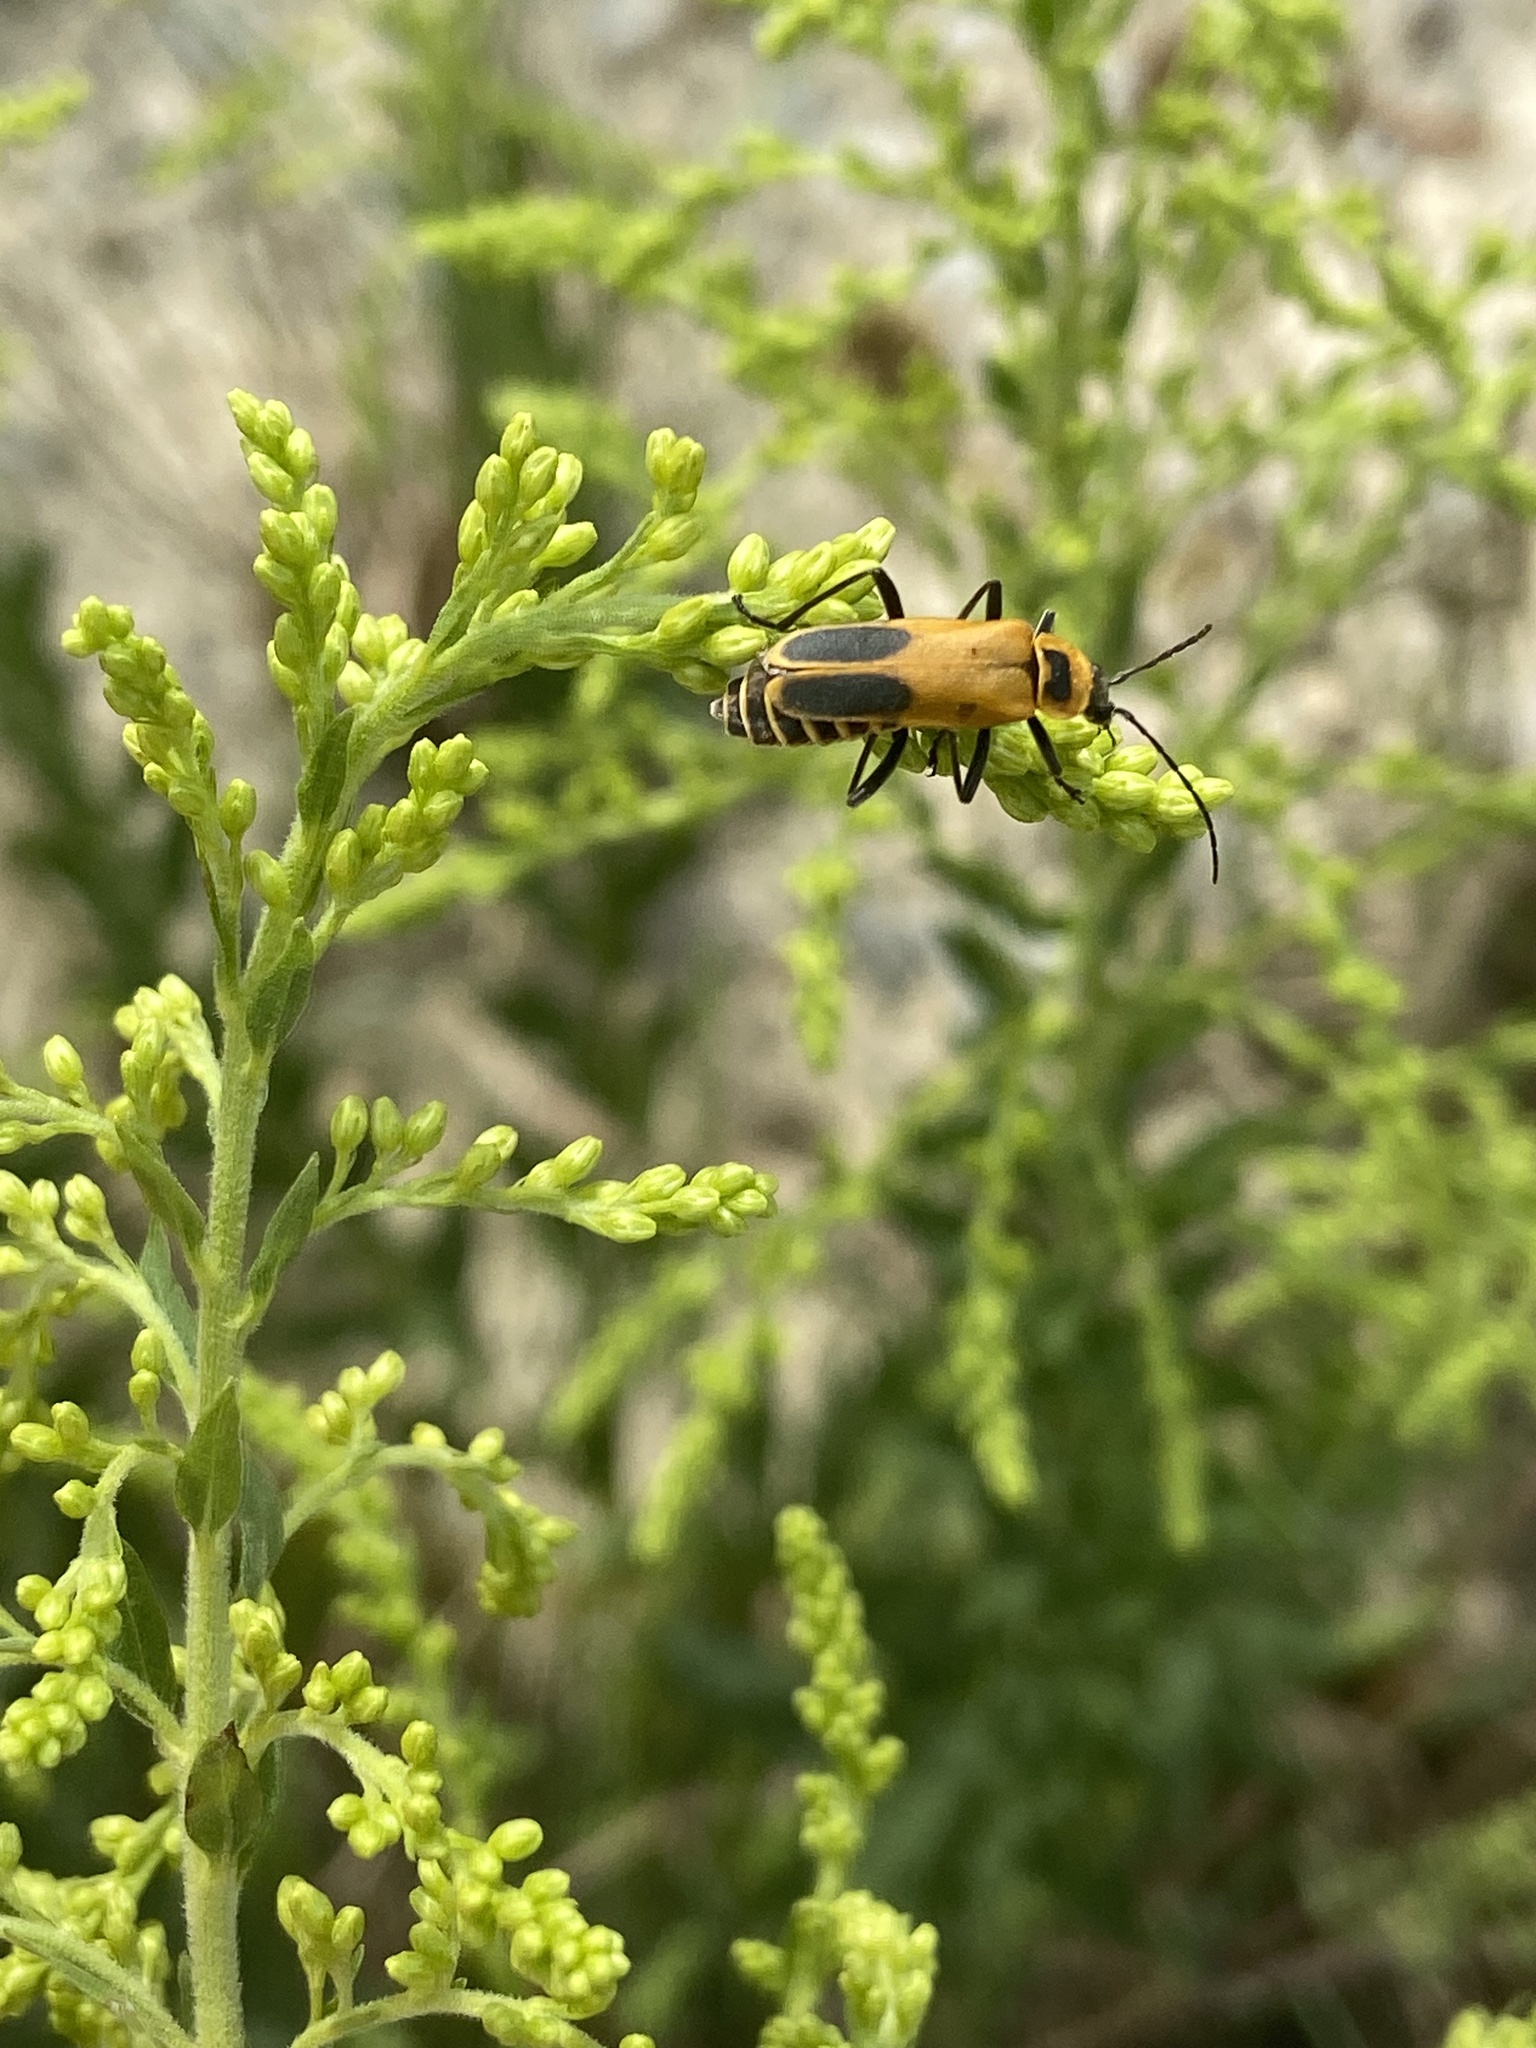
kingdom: Animalia
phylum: Arthropoda
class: Insecta
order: Coleoptera
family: Cantharidae
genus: Chauliognathus
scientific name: Chauliognathus pensylvanicus
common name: Goldenrod soldier beetle
